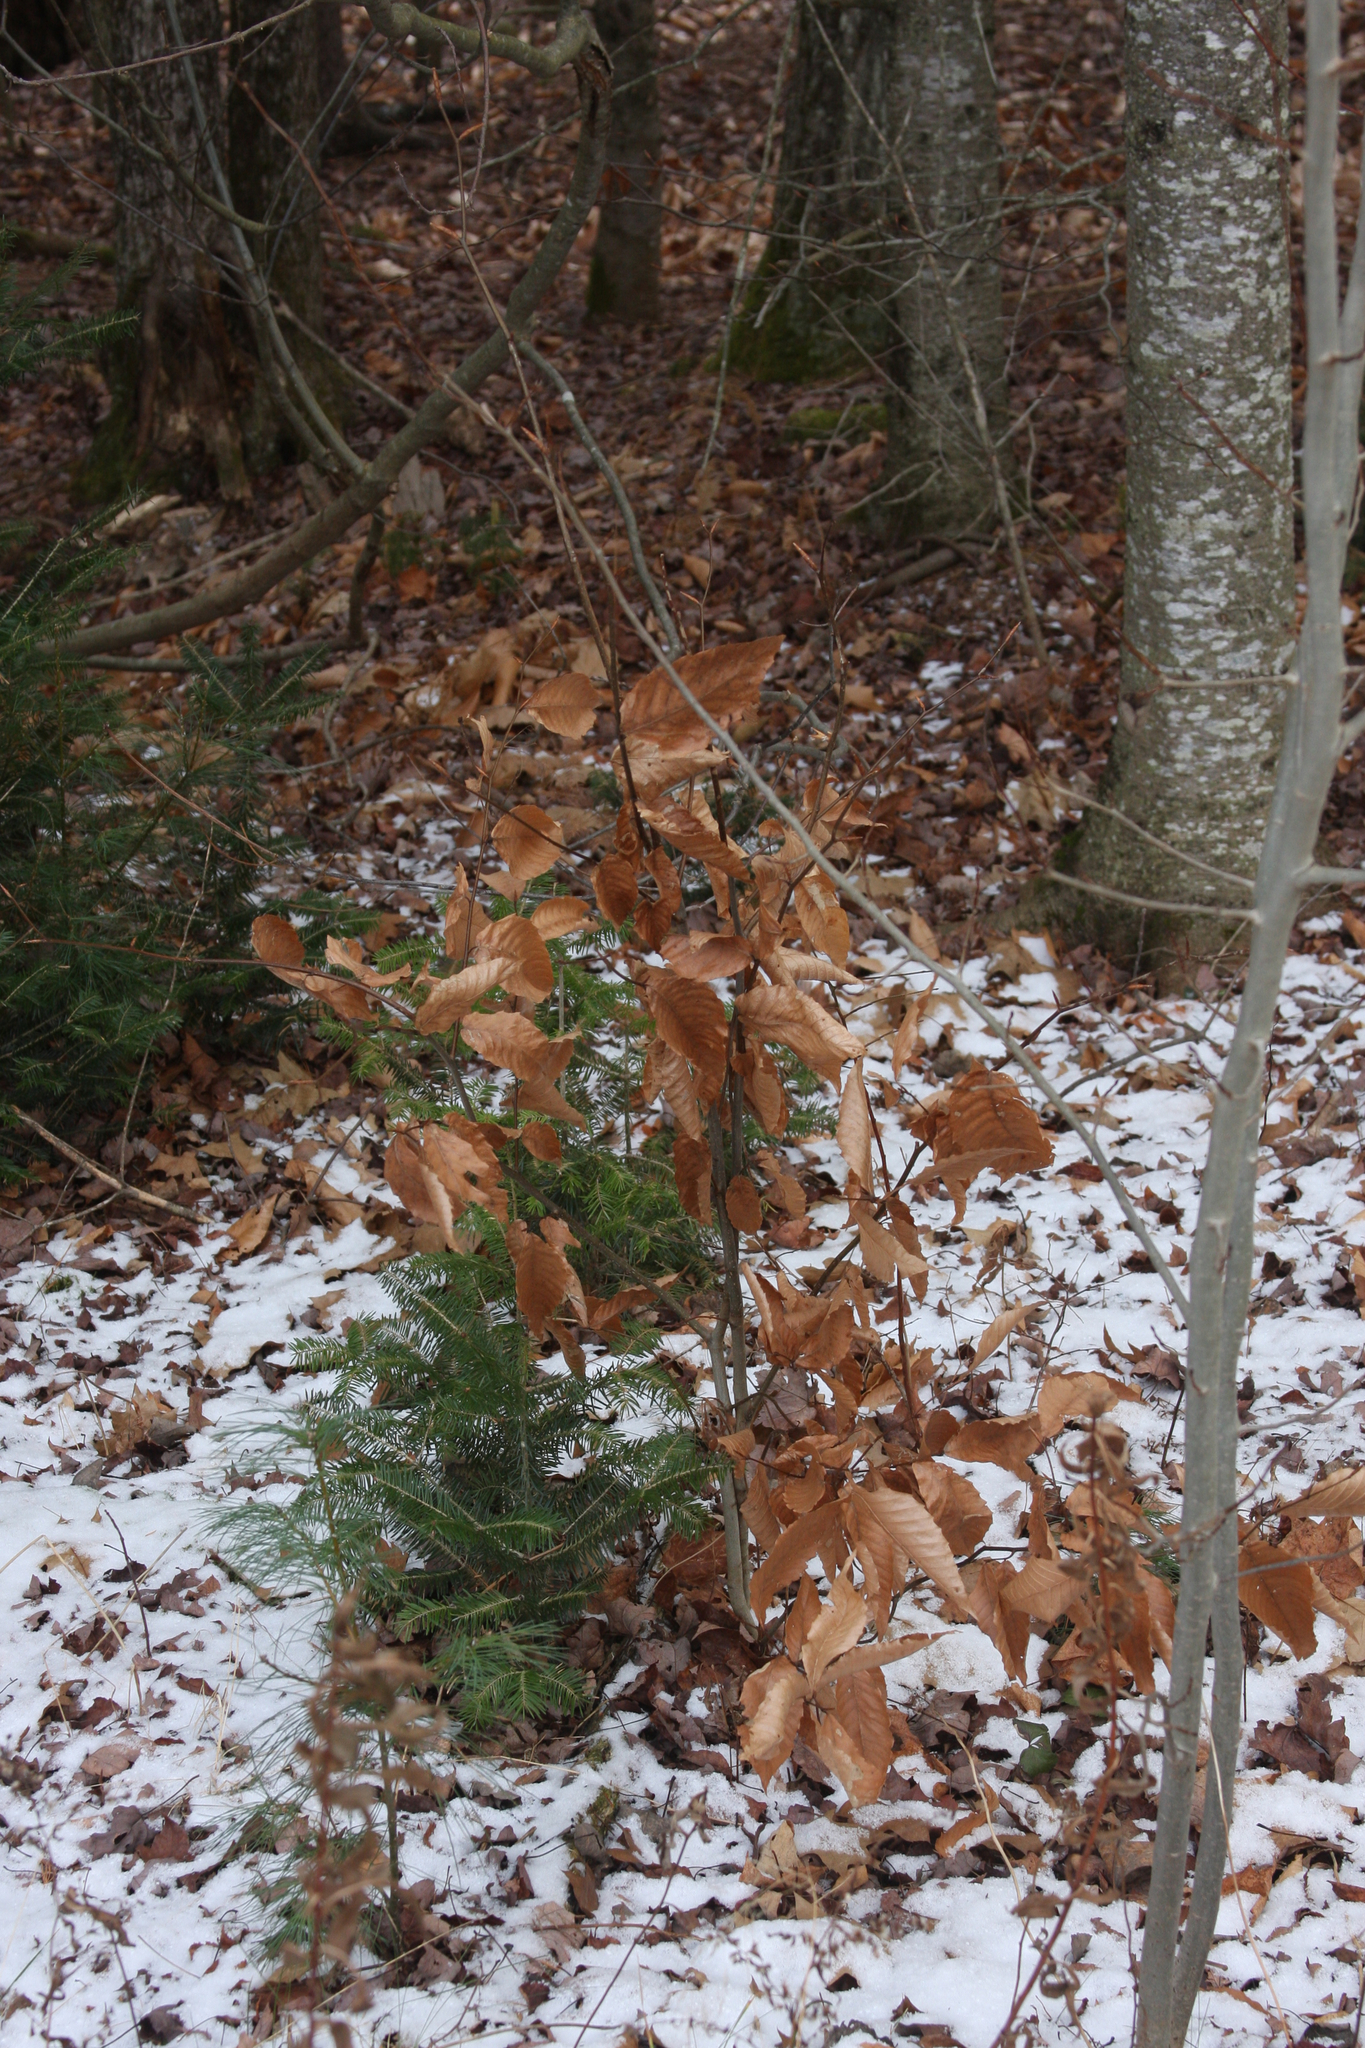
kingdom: Plantae
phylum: Tracheophyta
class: Magnoliopsida
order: Fagales
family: Fagaceae
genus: Fagus
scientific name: Fagus grandifolia
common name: American beech
